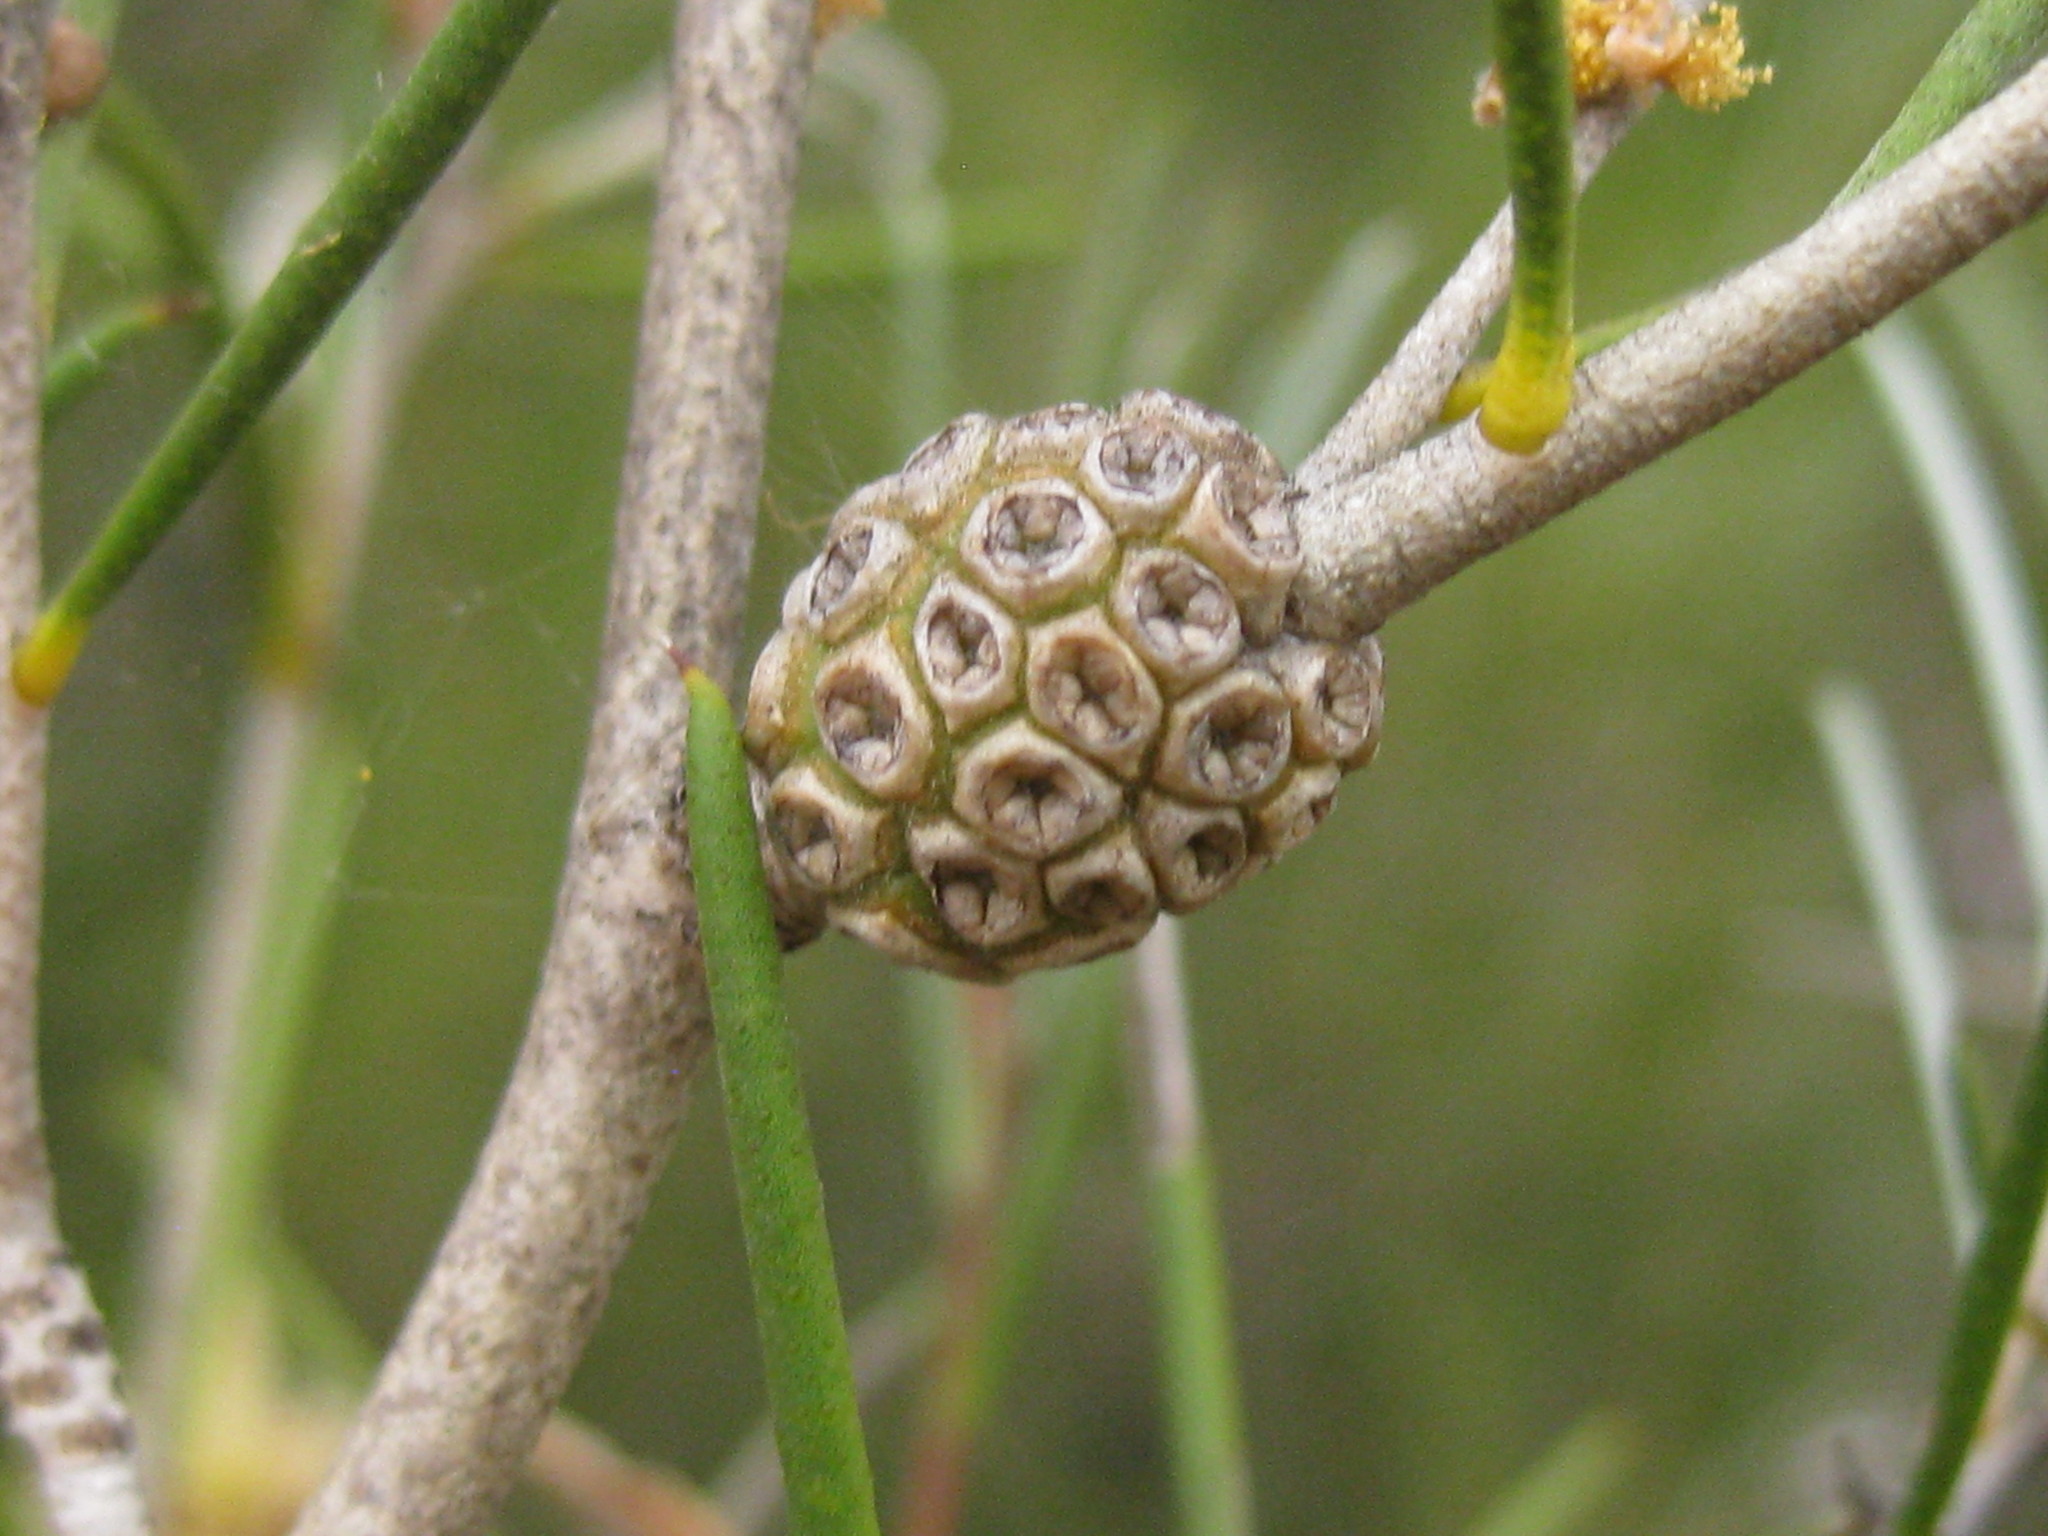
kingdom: Plantae
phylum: Tracheophyta
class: Magnoliopsida
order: Myrtales
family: Myrtaceae
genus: Melaleuca
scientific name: Melaleuca concreta
